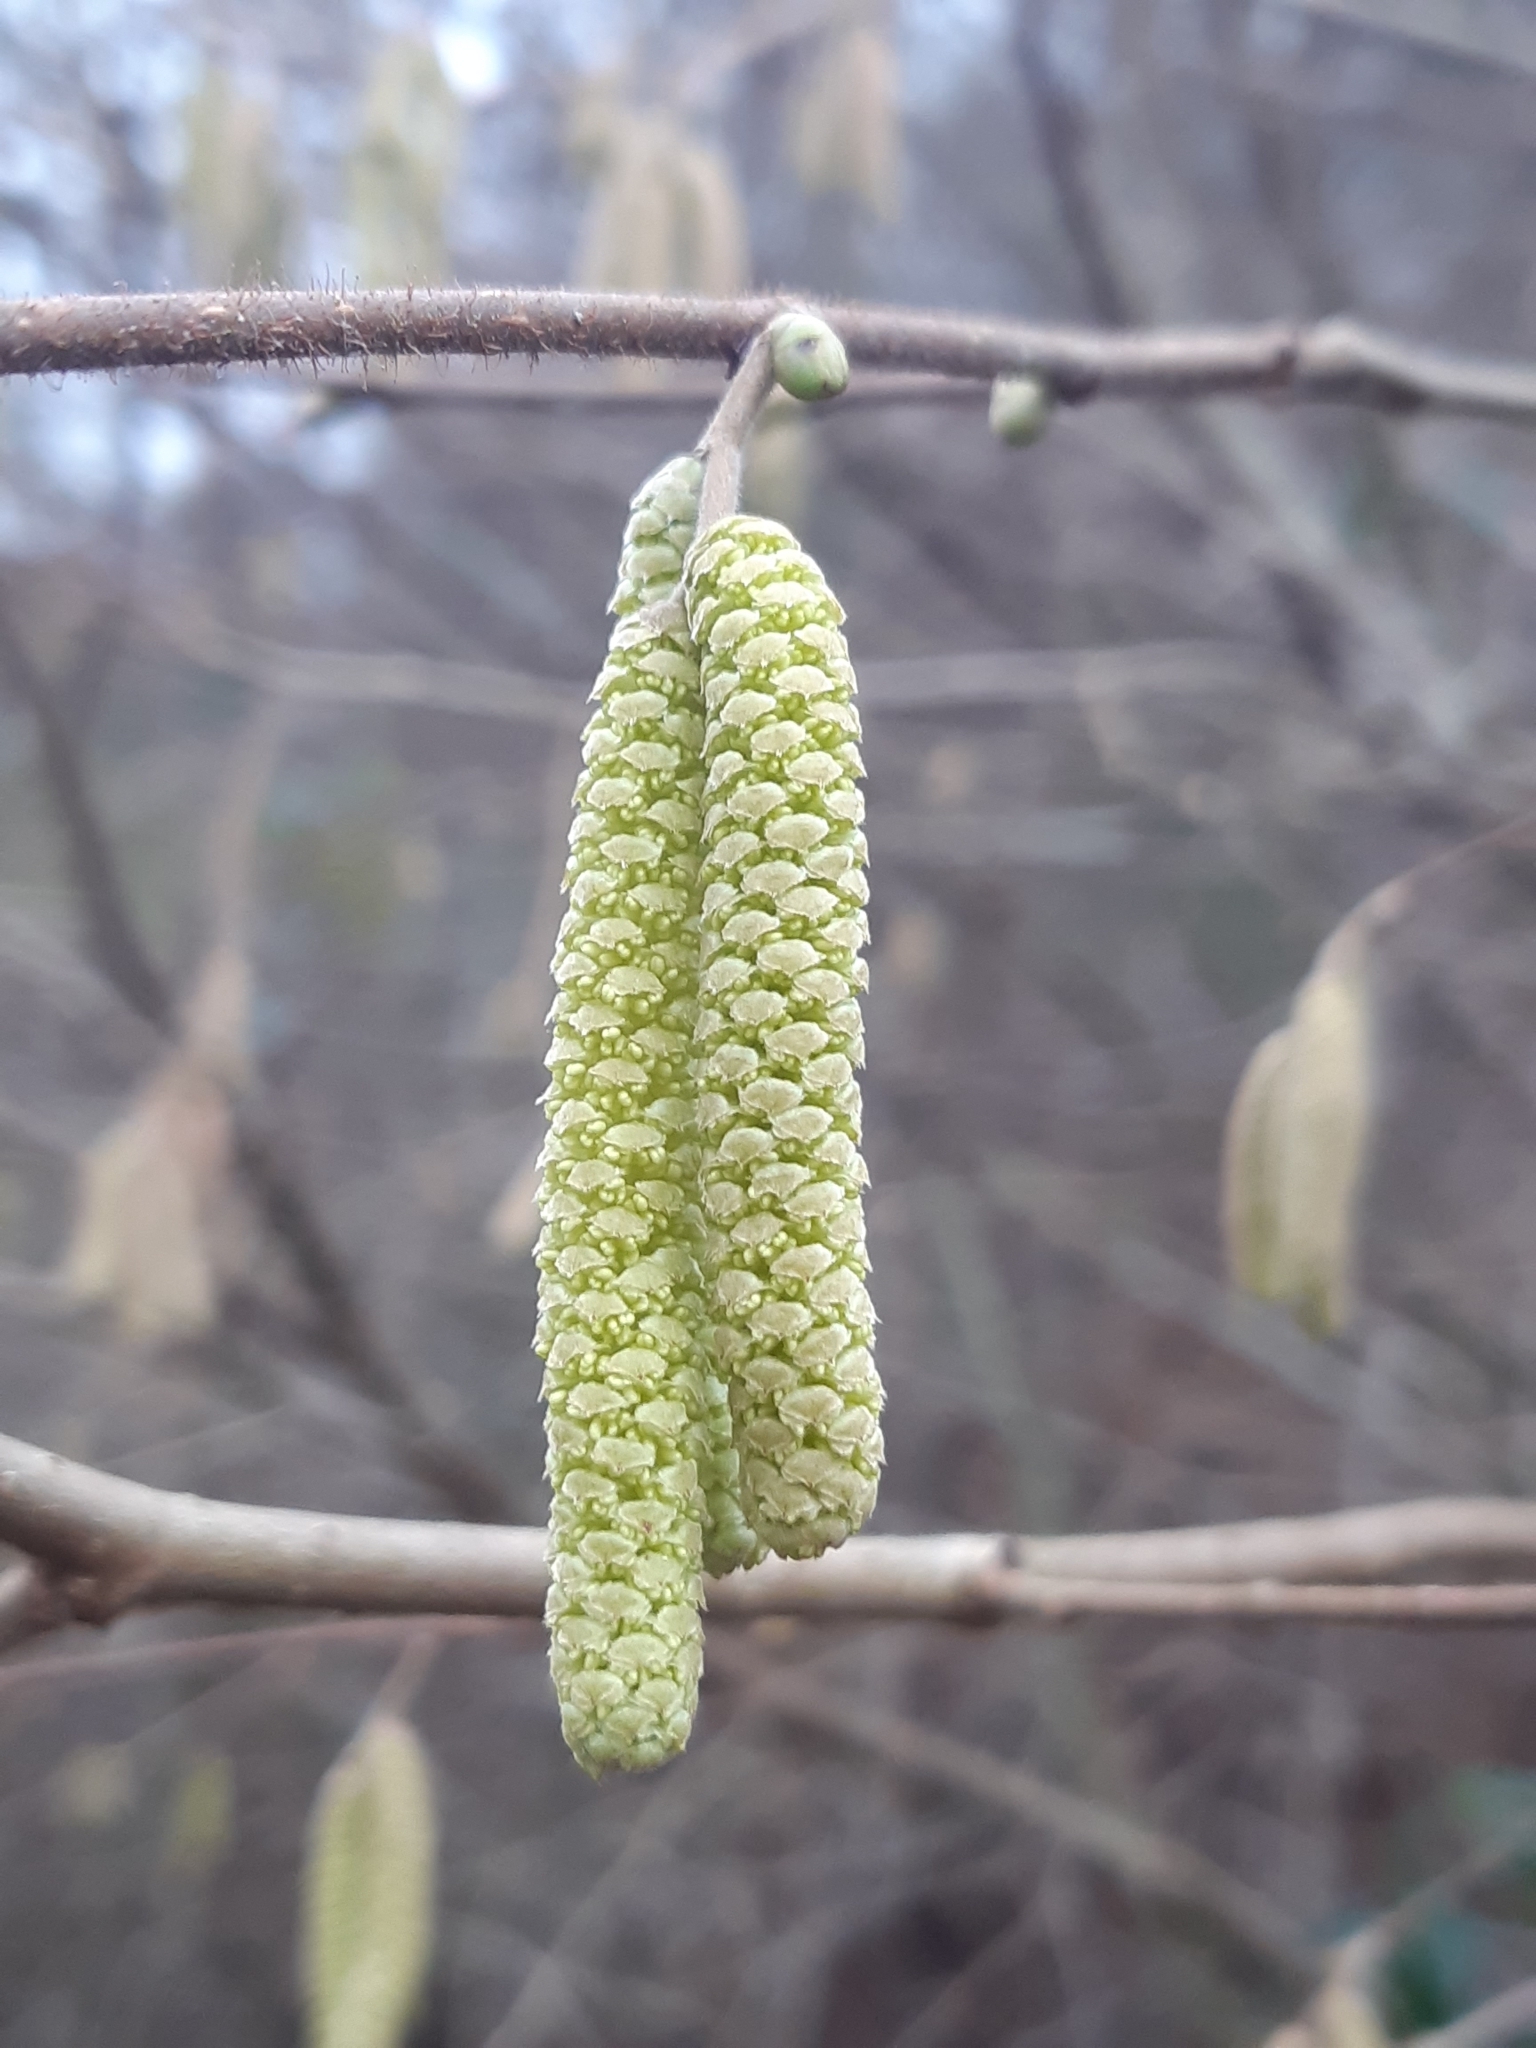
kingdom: Plantae
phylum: Tracheophyta
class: Magnoliopsida
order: Fagales
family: Betulaceae
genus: Corylus
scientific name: Corylus avellana
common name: European hazel
